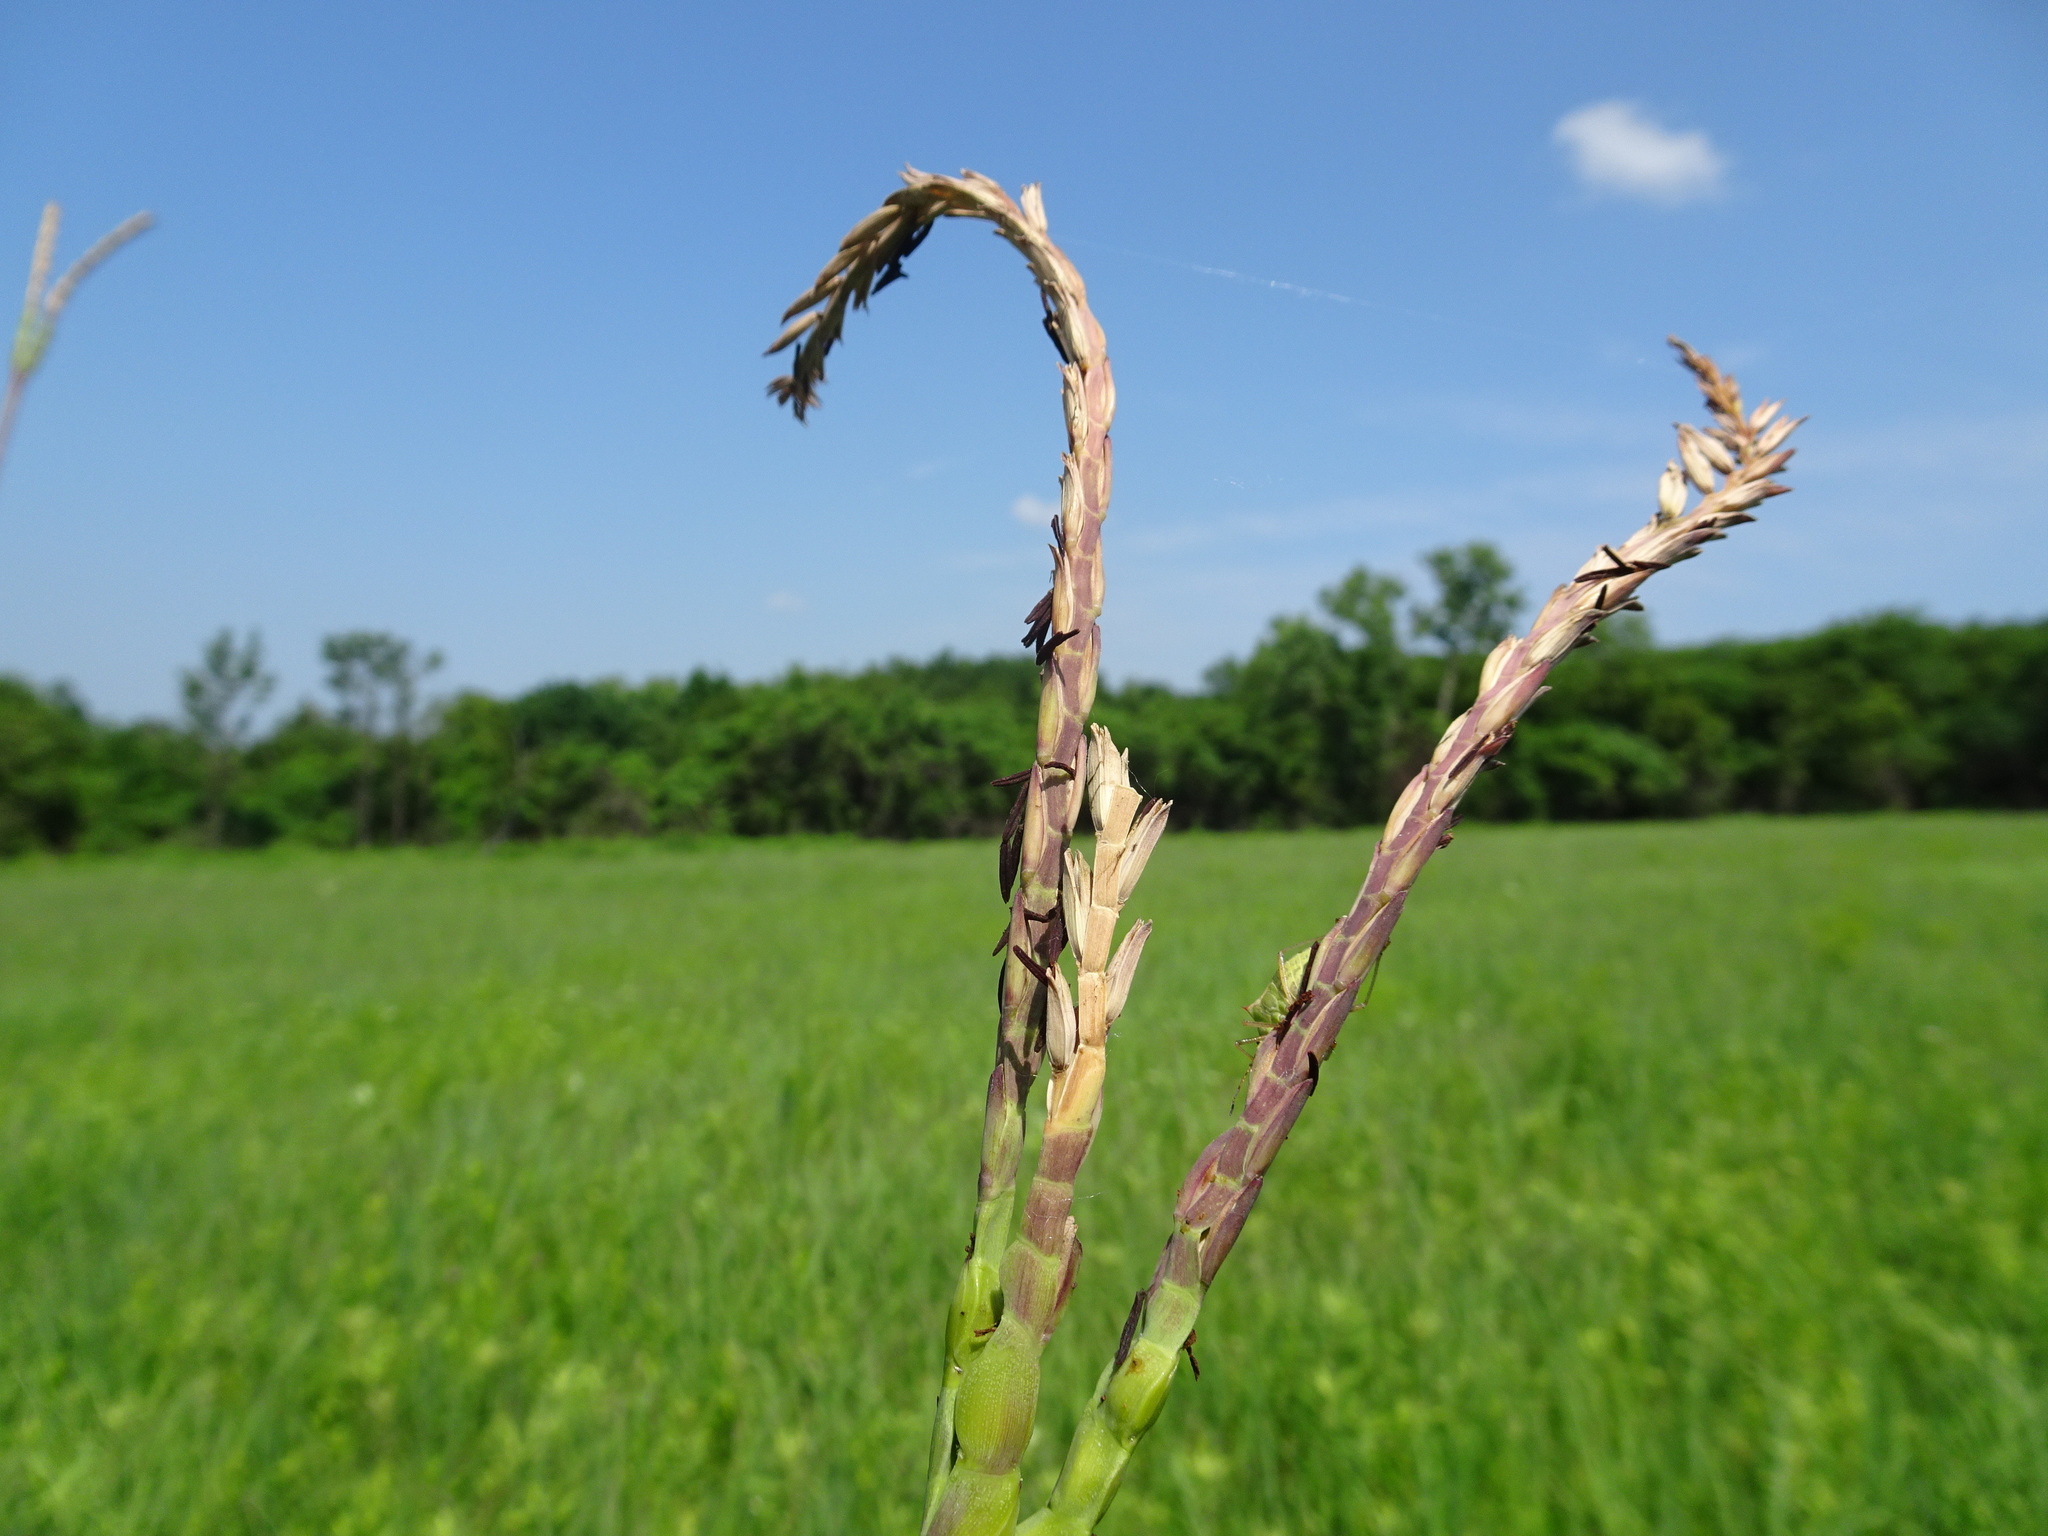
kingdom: Plantae
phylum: Tracheophyta
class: Liliopsida
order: Poales
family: Poaceae
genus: Tripsacum
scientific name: Tripsacum dactyloides
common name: Buffalo-grass
